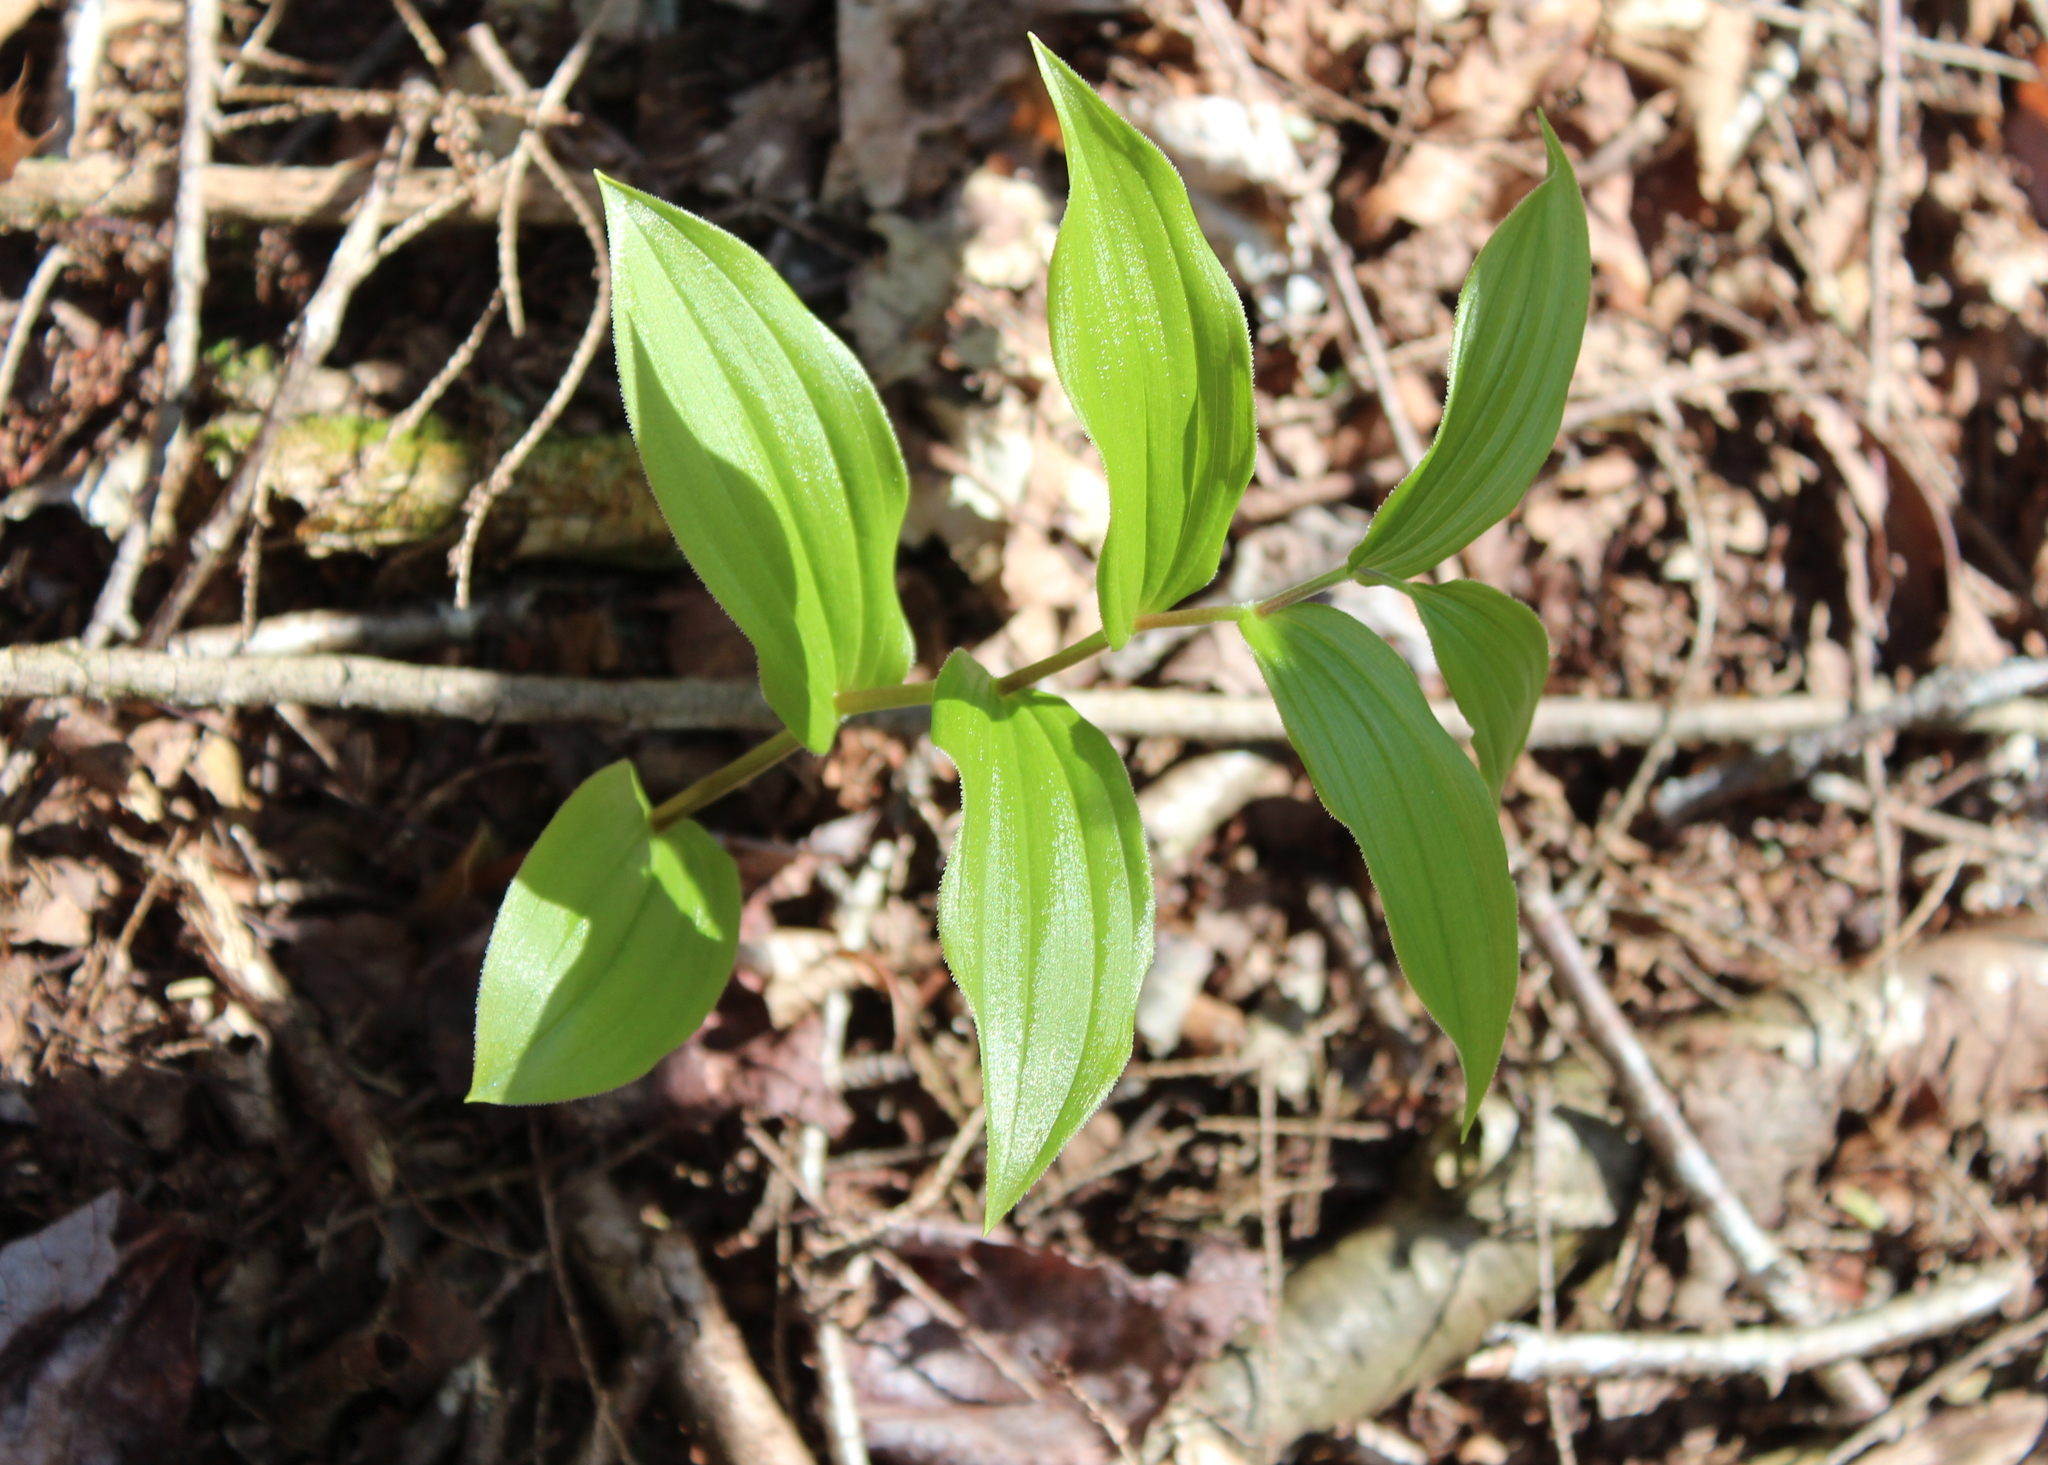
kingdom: Plantae
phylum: Tracheophyta
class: Liliopsida
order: Liliales
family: Liliaceae
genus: Streptopus
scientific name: Streptopus lanceolatus
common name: Rose mandarin
